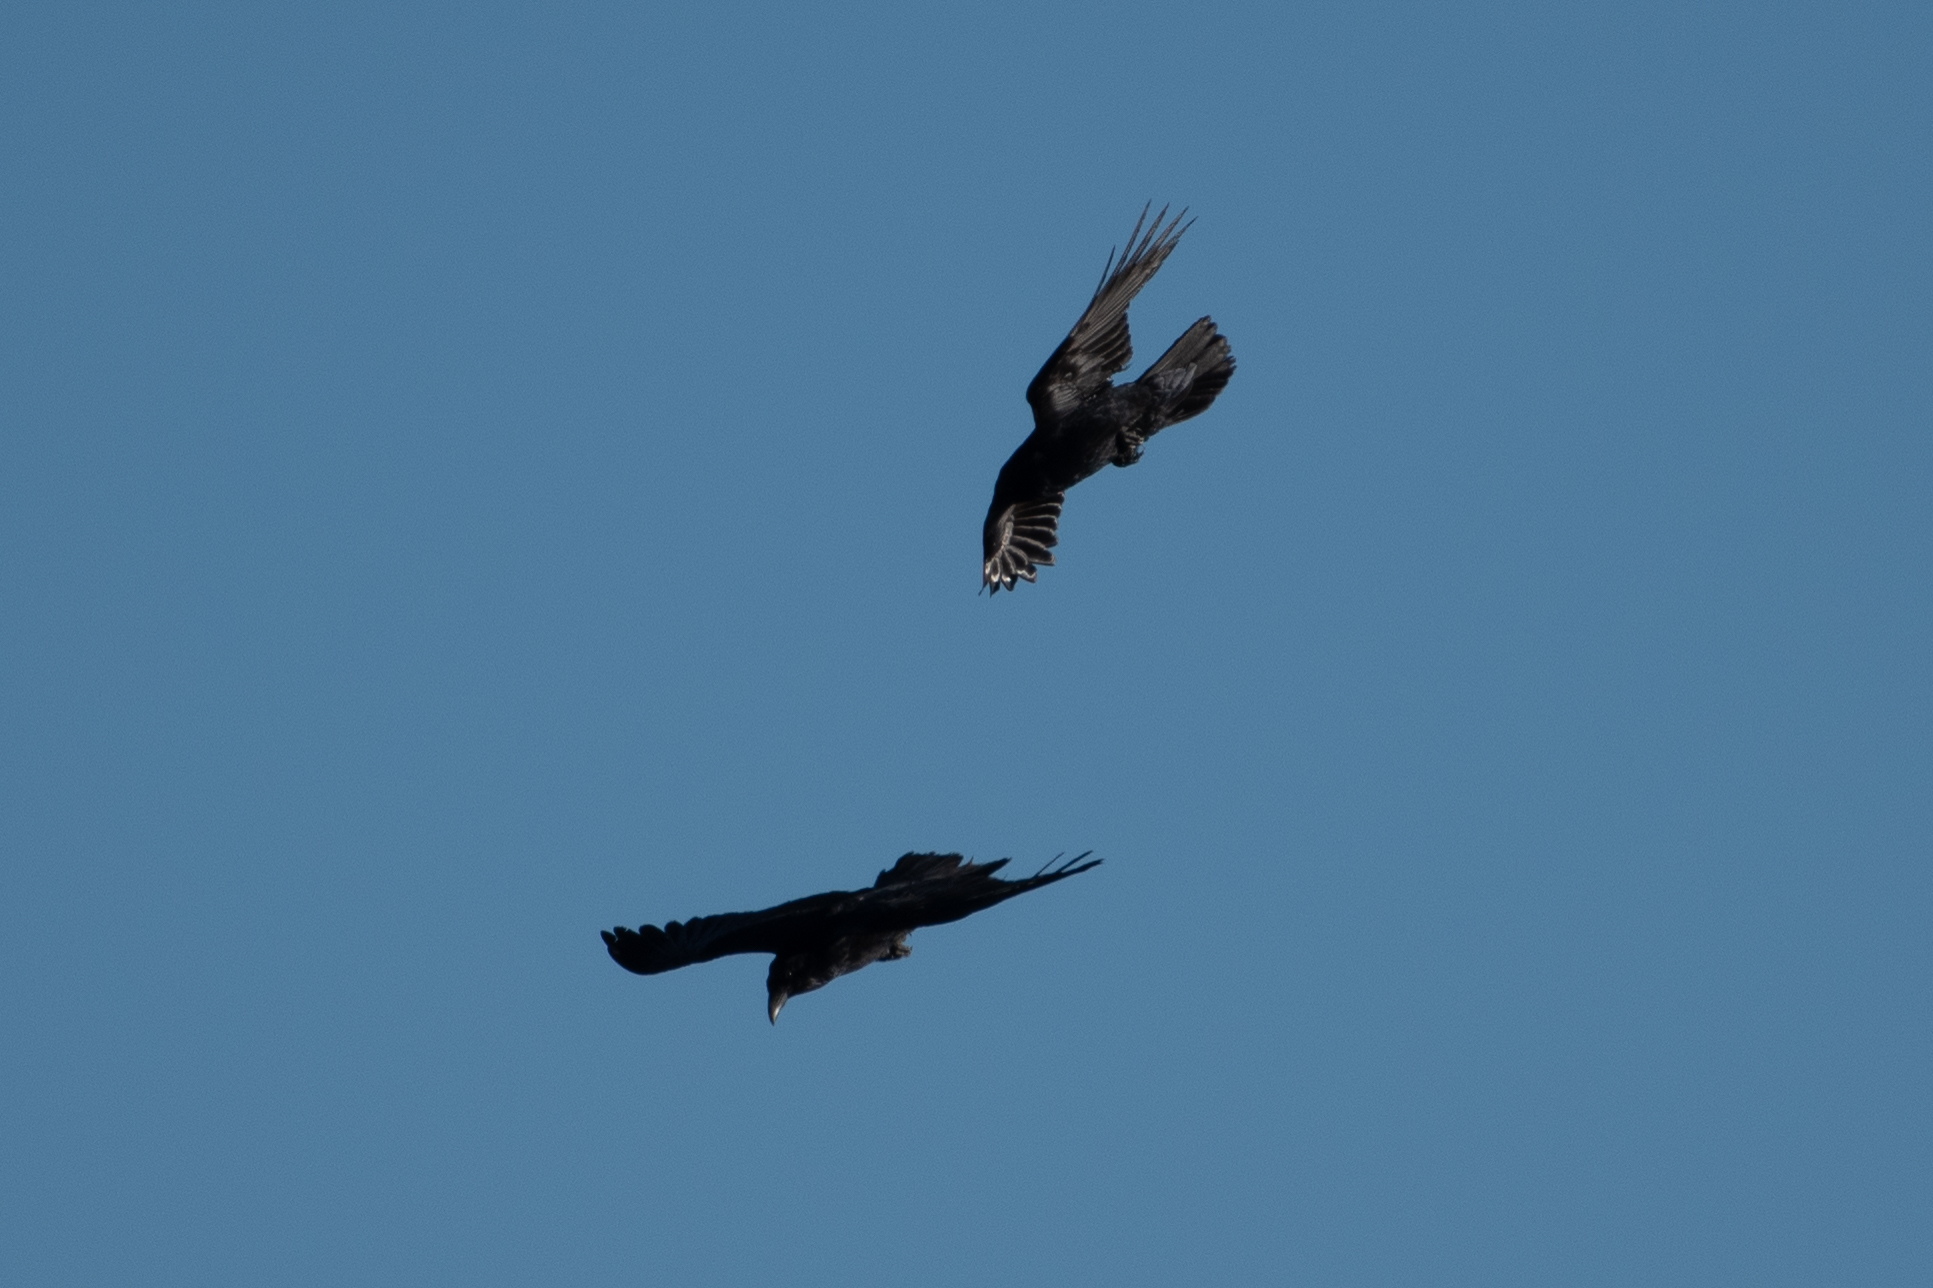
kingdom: Animalia
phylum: Chordata
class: Aves
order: Passeriformes
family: Corvidae
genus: Corvus
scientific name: Corvus corax
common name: Common raven
